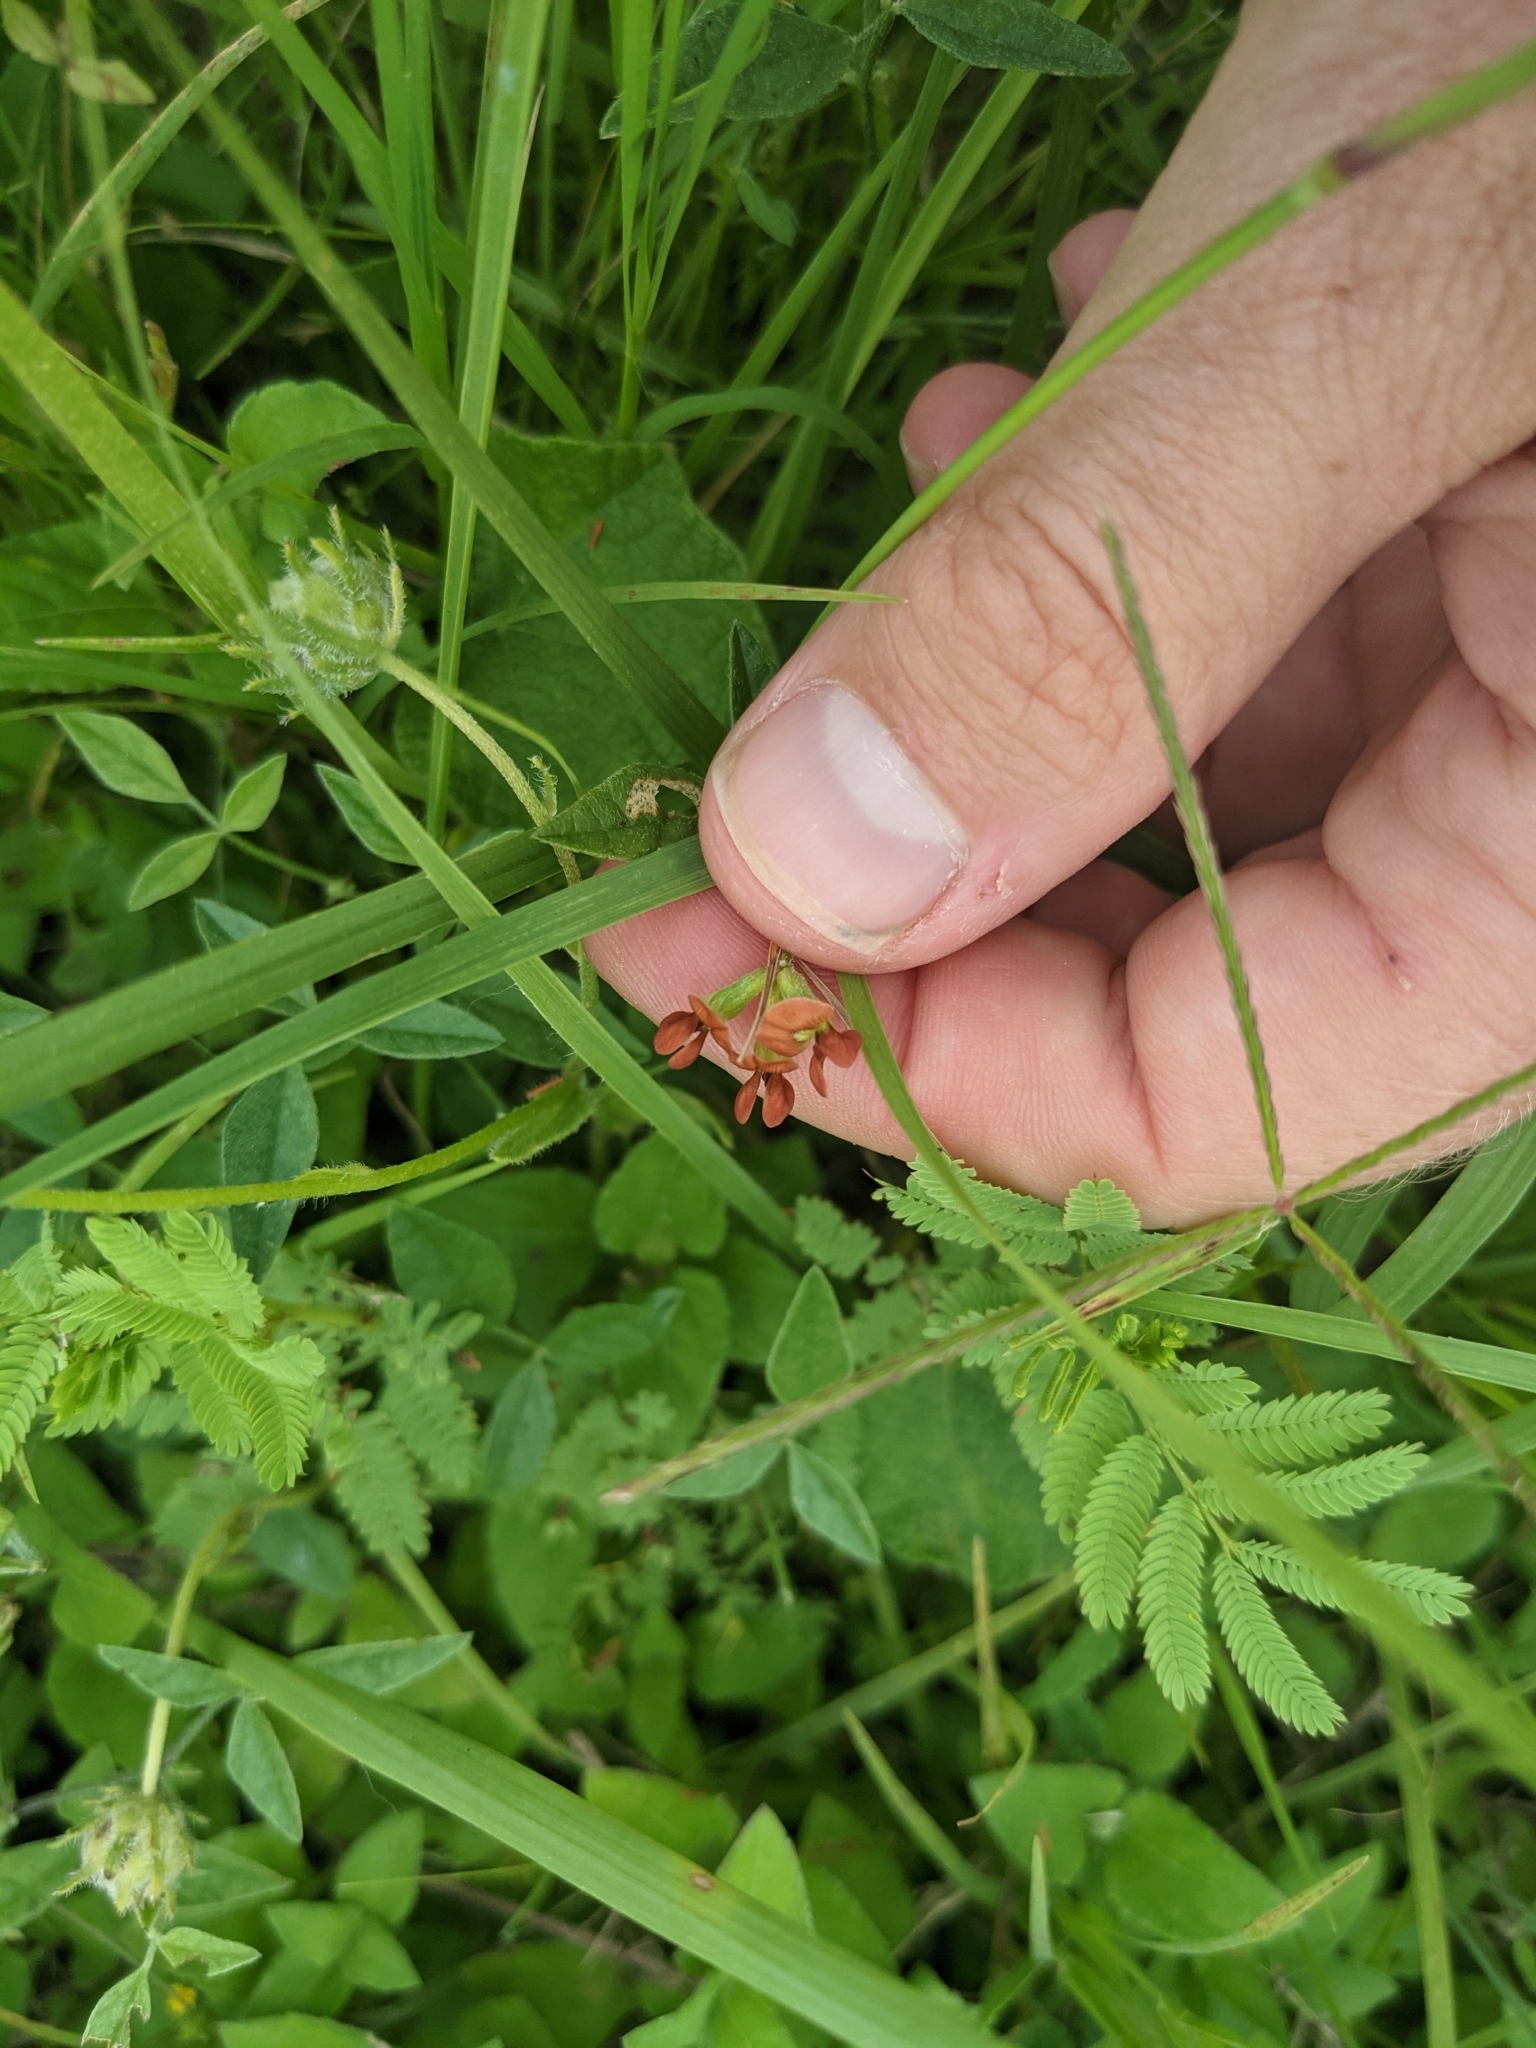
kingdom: Plantae
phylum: Tracheophyta
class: Magnoliopsida
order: Fabales
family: Fabaceae
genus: Pediomelum
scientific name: Pediomelum rhombifolium
